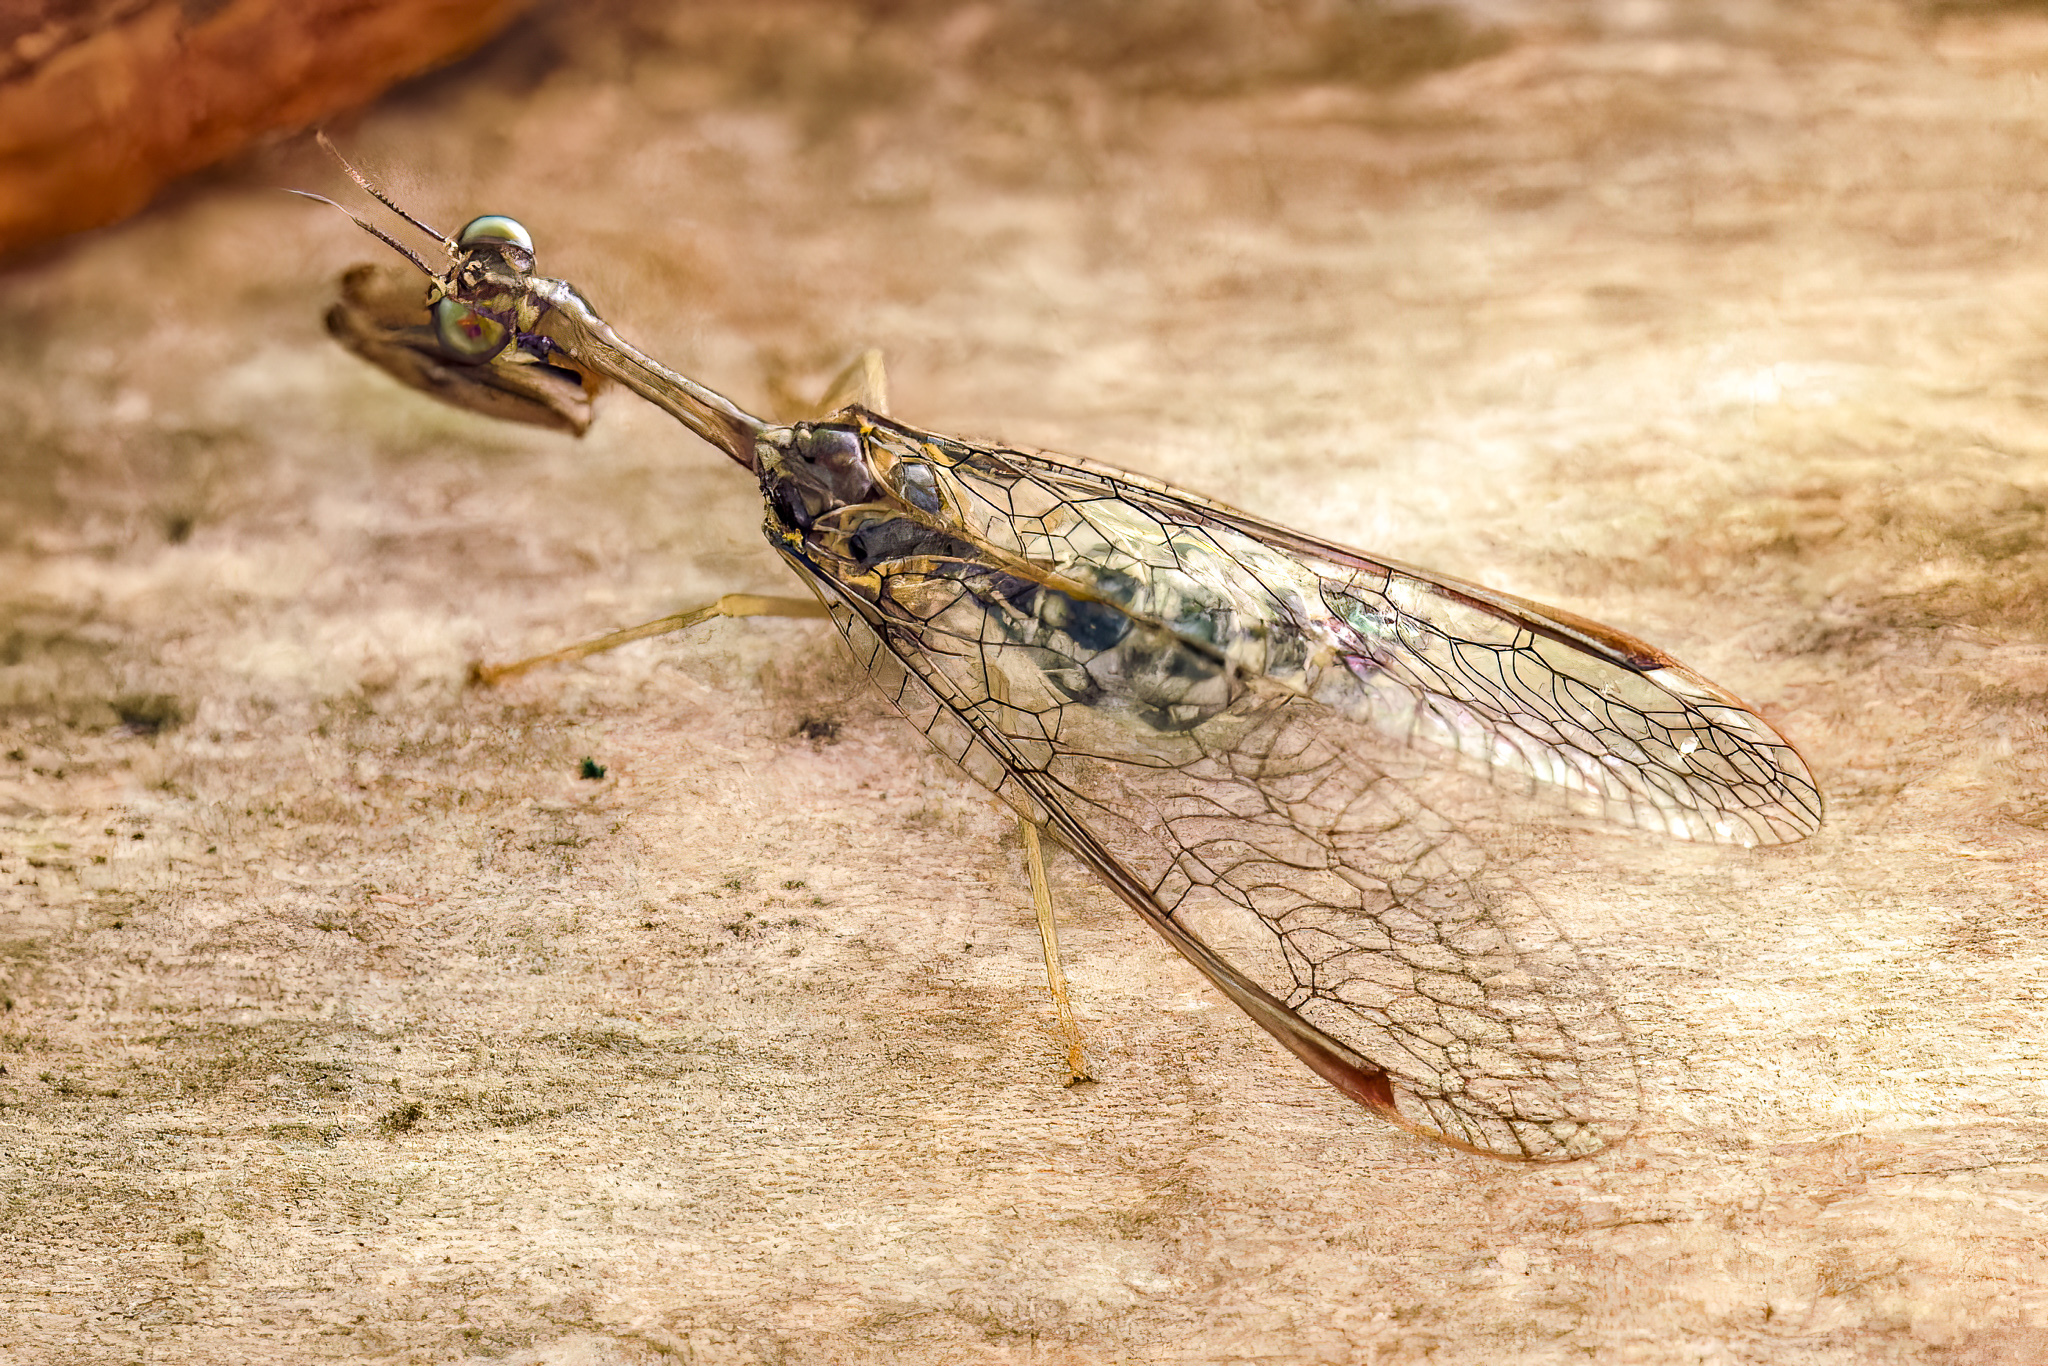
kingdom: Animalia
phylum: Arthropoda
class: Insecta
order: Neuroptera
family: Mantispidae
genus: Dicromantispa
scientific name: Dicromantispa sayi
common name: Say's mantidfly
